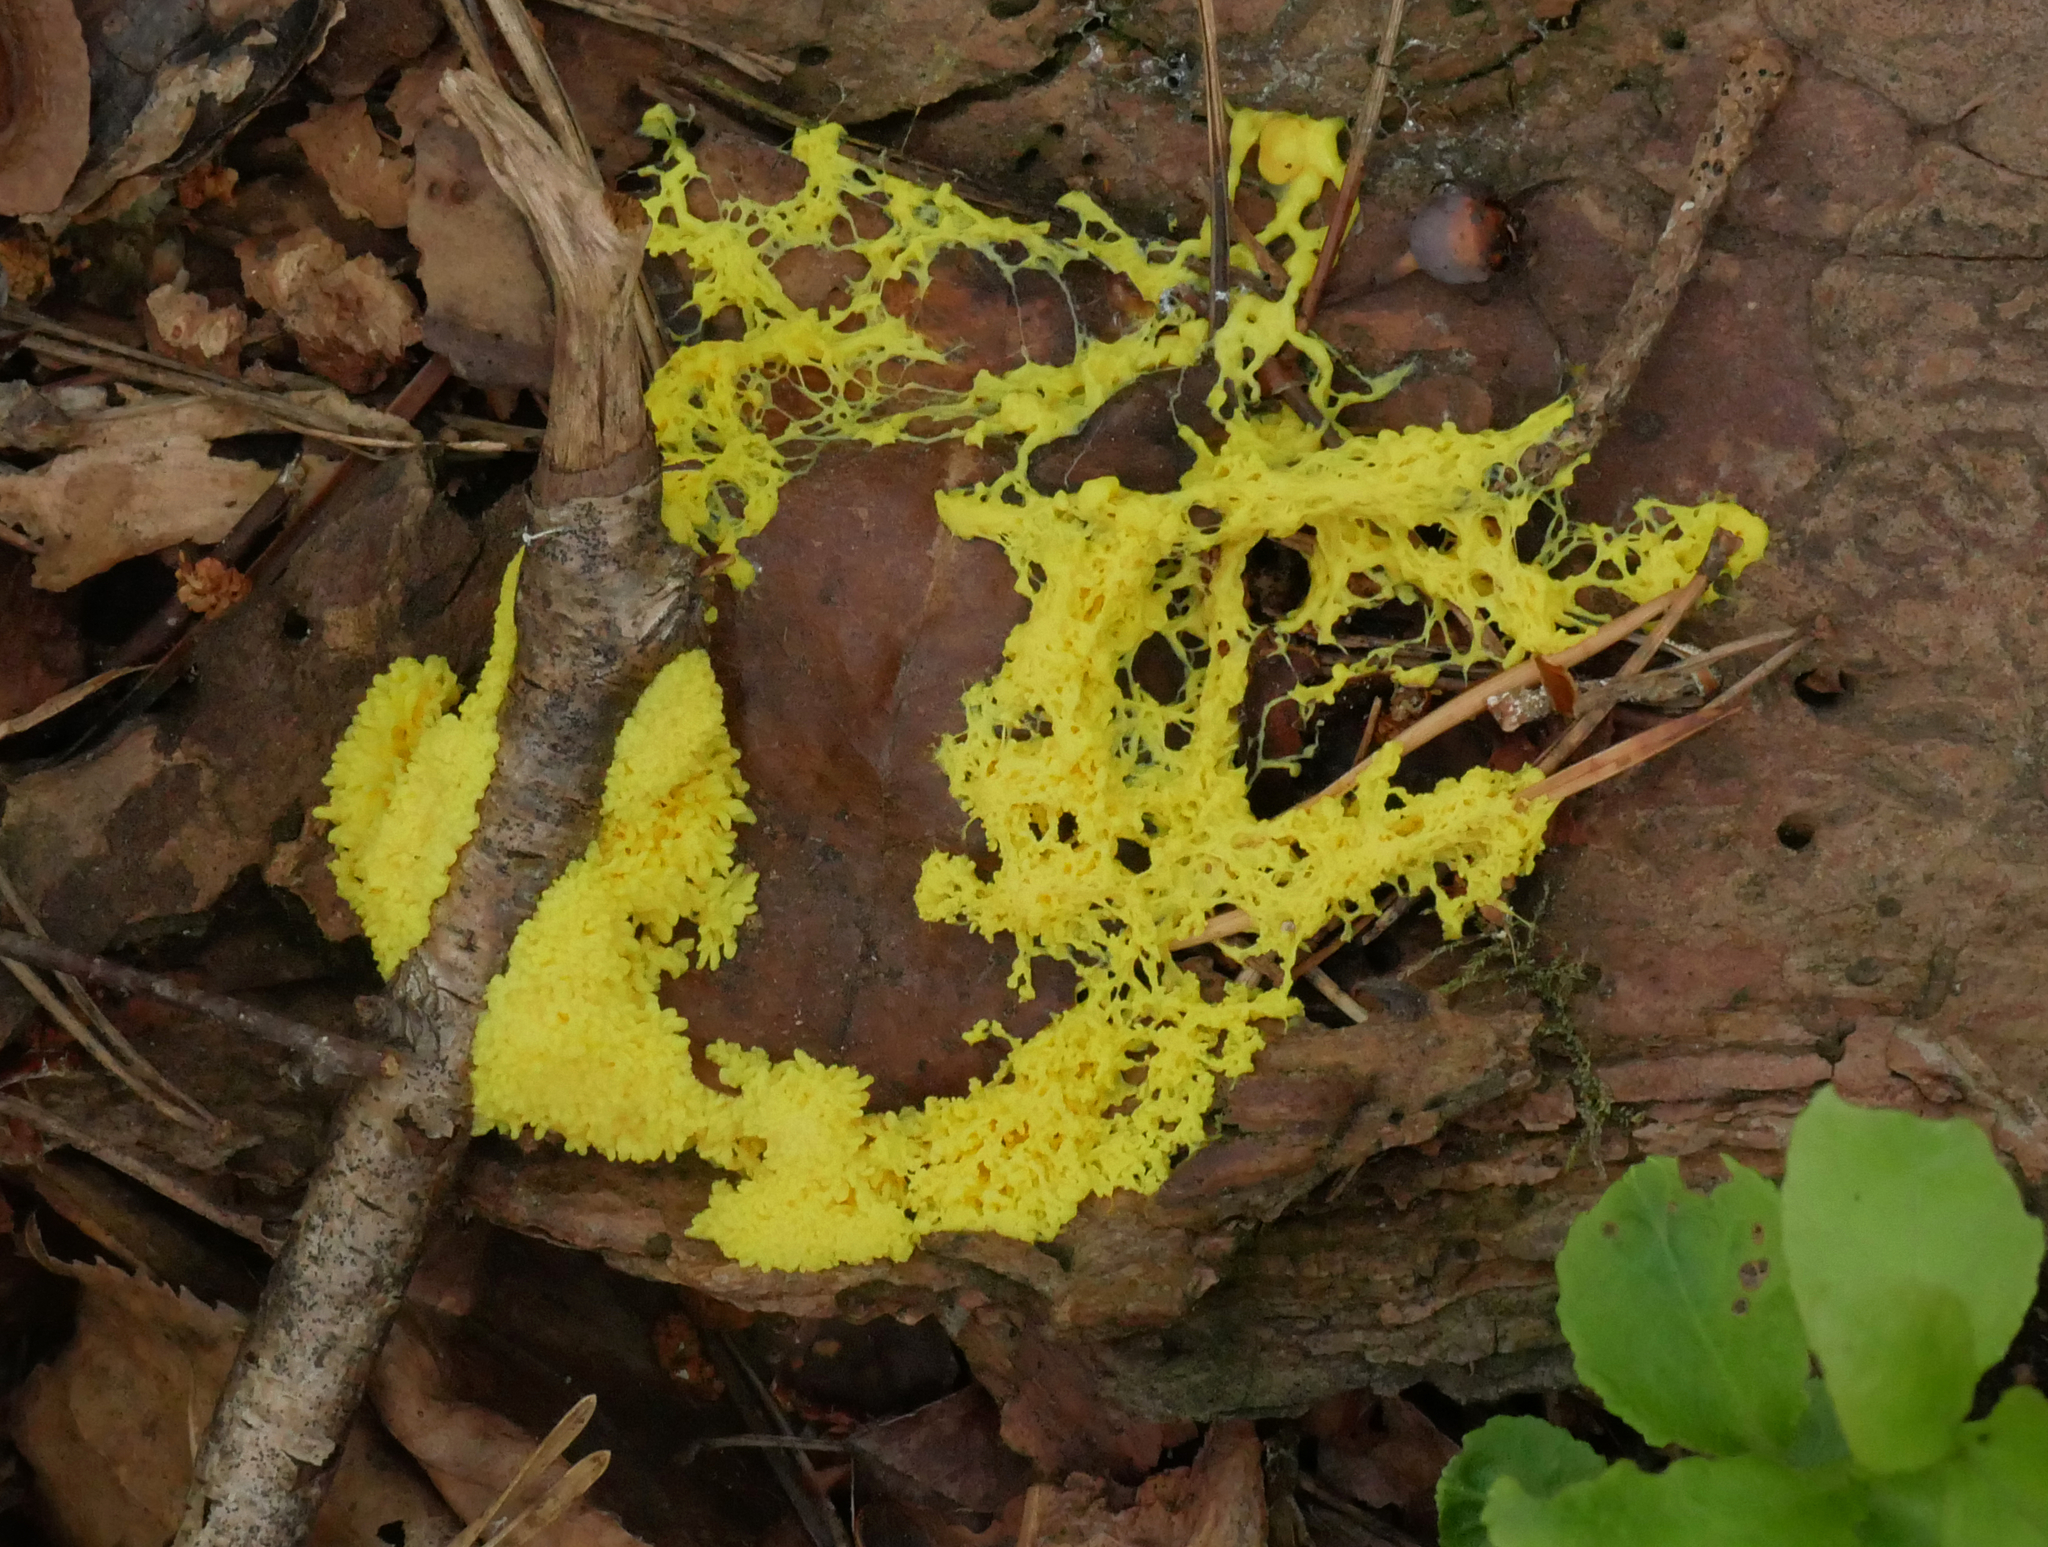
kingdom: Protozoa
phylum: Mycetozoa
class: Myxomycetes
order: Physarales
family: Physaraceae
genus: Fuligo
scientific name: Fuligo septica
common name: Dog vomit slime mold
